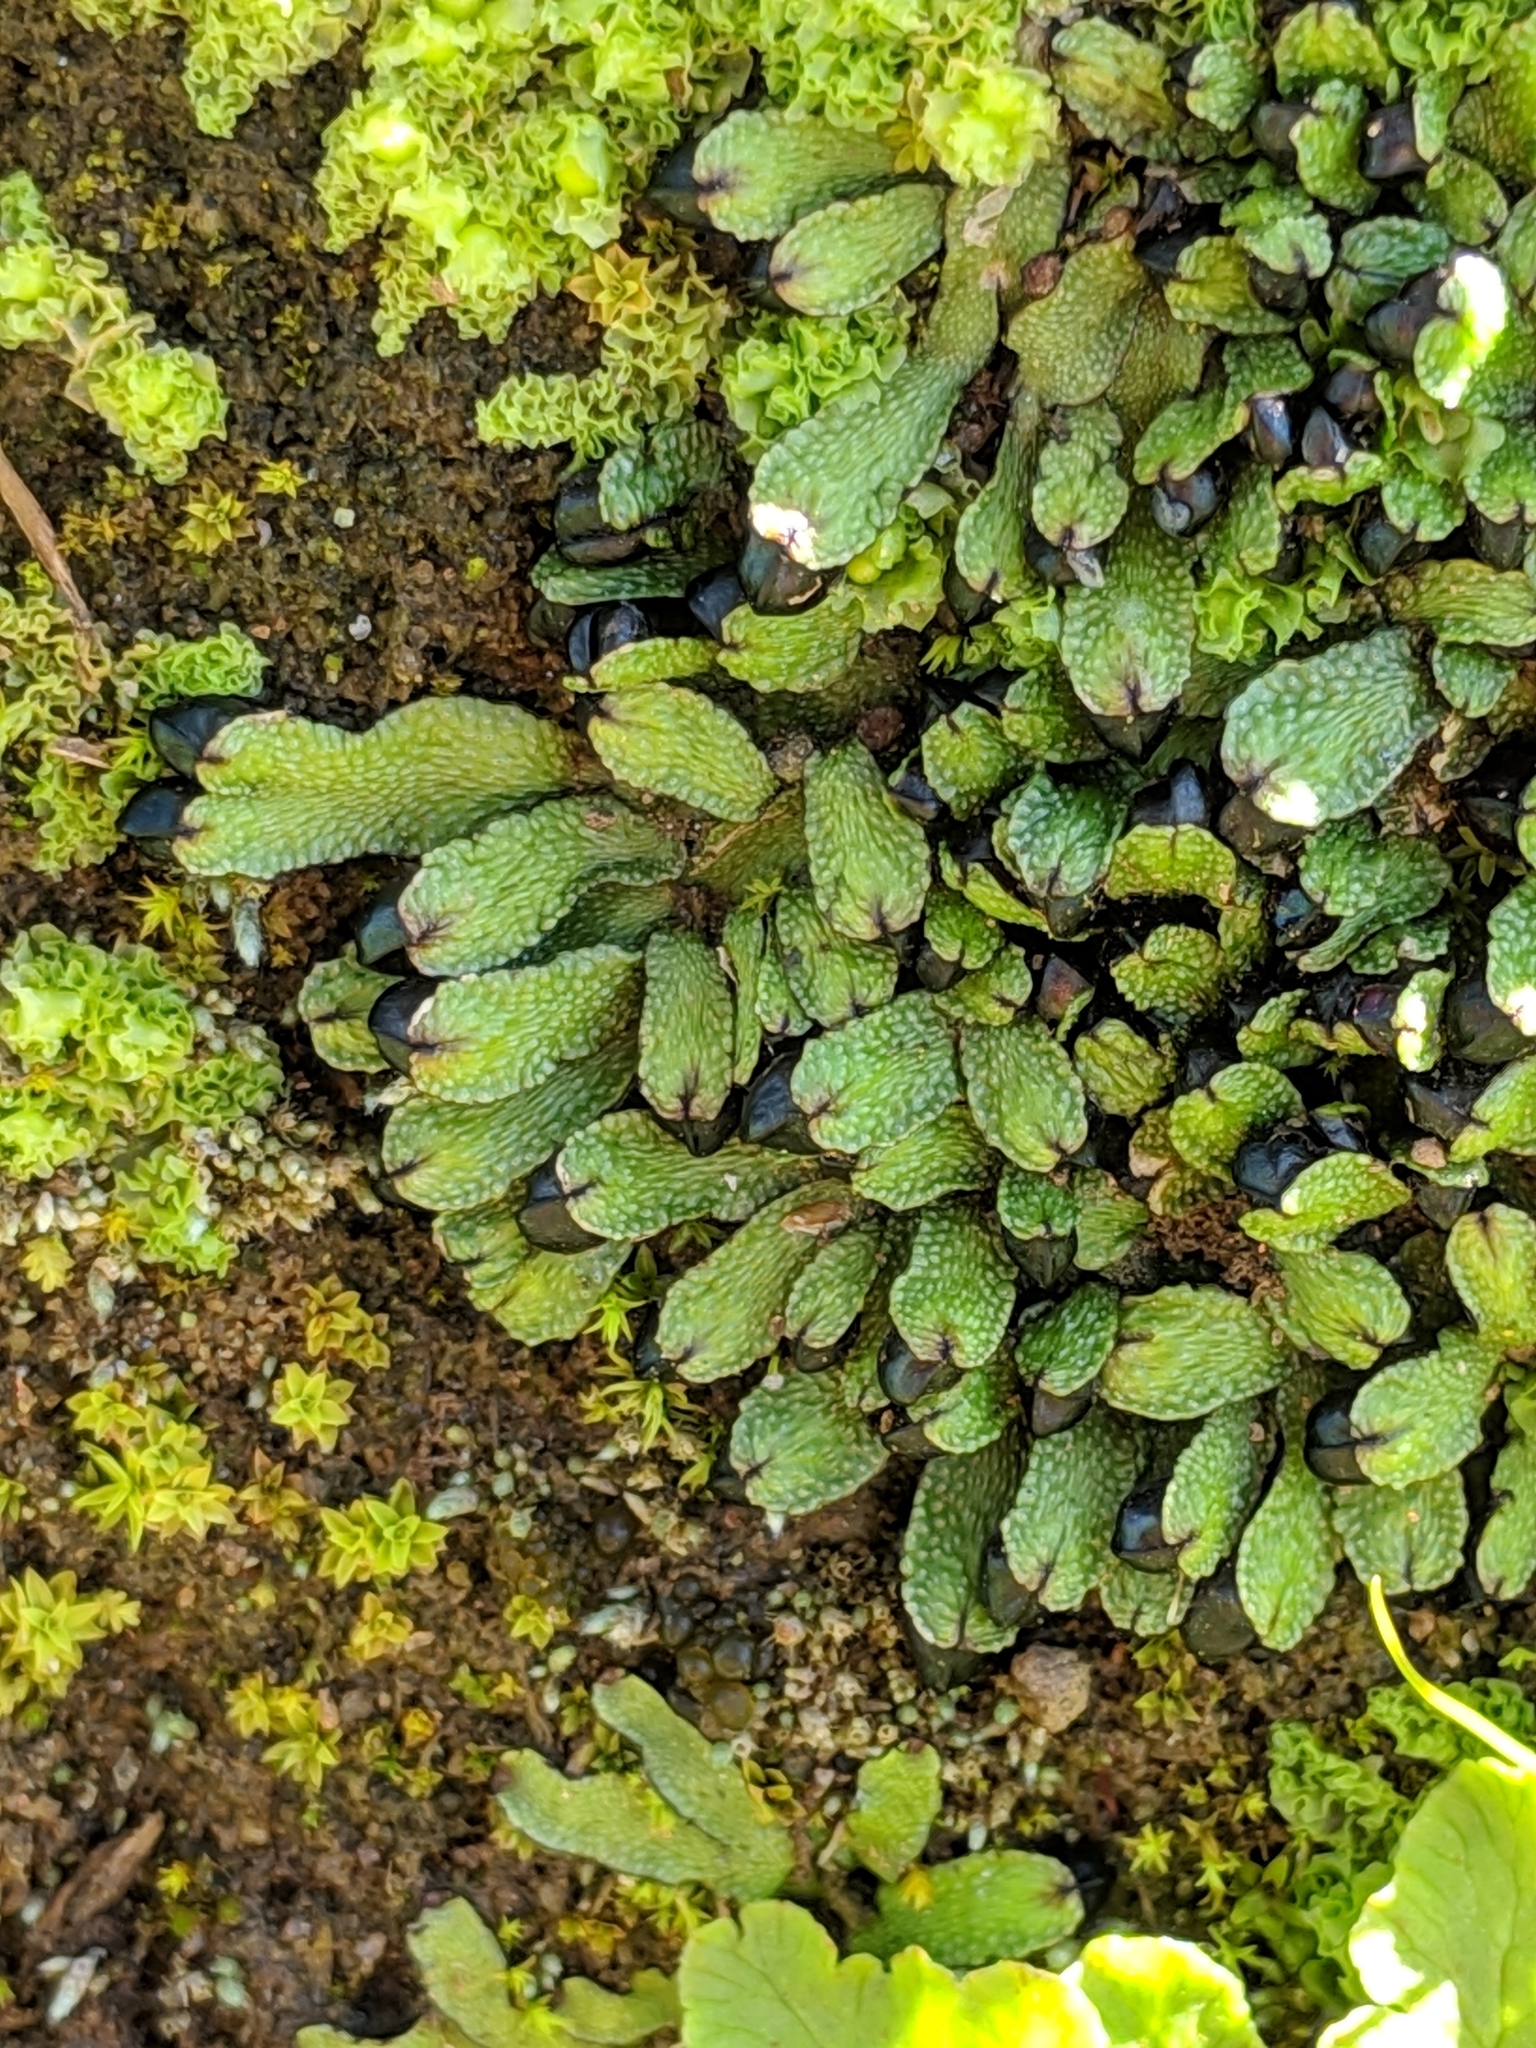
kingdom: Plantae
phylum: Marchantiophyta
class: Marchantiopsida
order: Marchantiales
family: Targioniaceae
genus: Targionia
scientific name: Targionia hypophylla
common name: Orobus-seed liverwort
